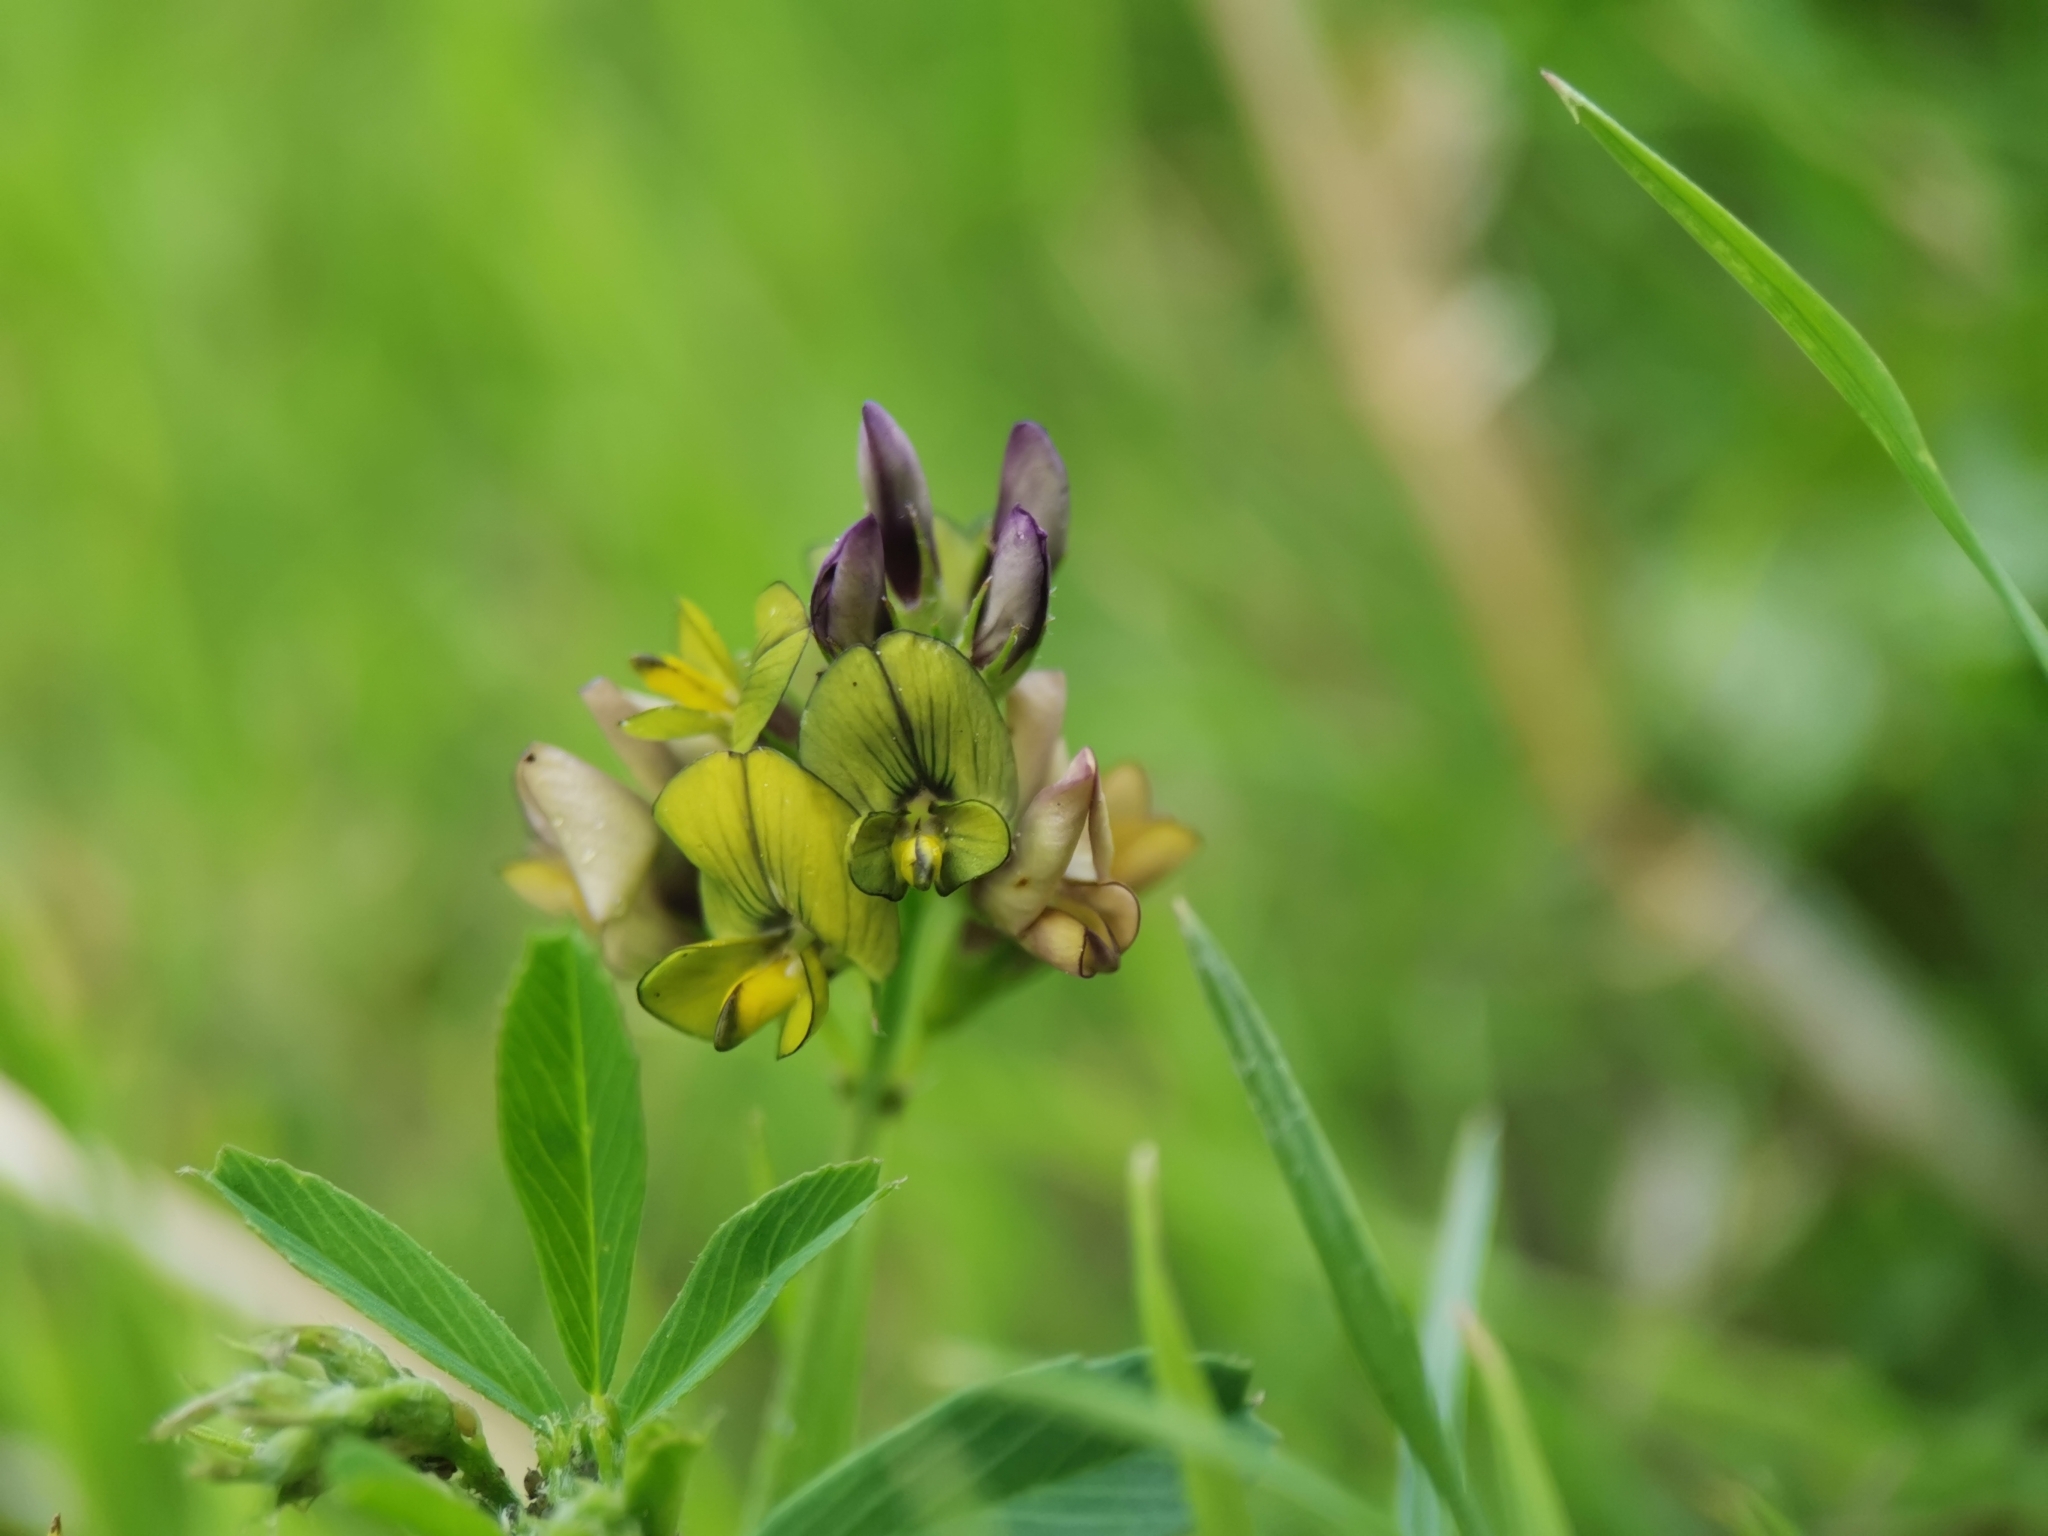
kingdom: Plantae
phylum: Tracheophyta
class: Magnoliopsida
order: Fabales
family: Fabaceae
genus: Medicago
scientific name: Medicago varia
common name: Sand lucerne
